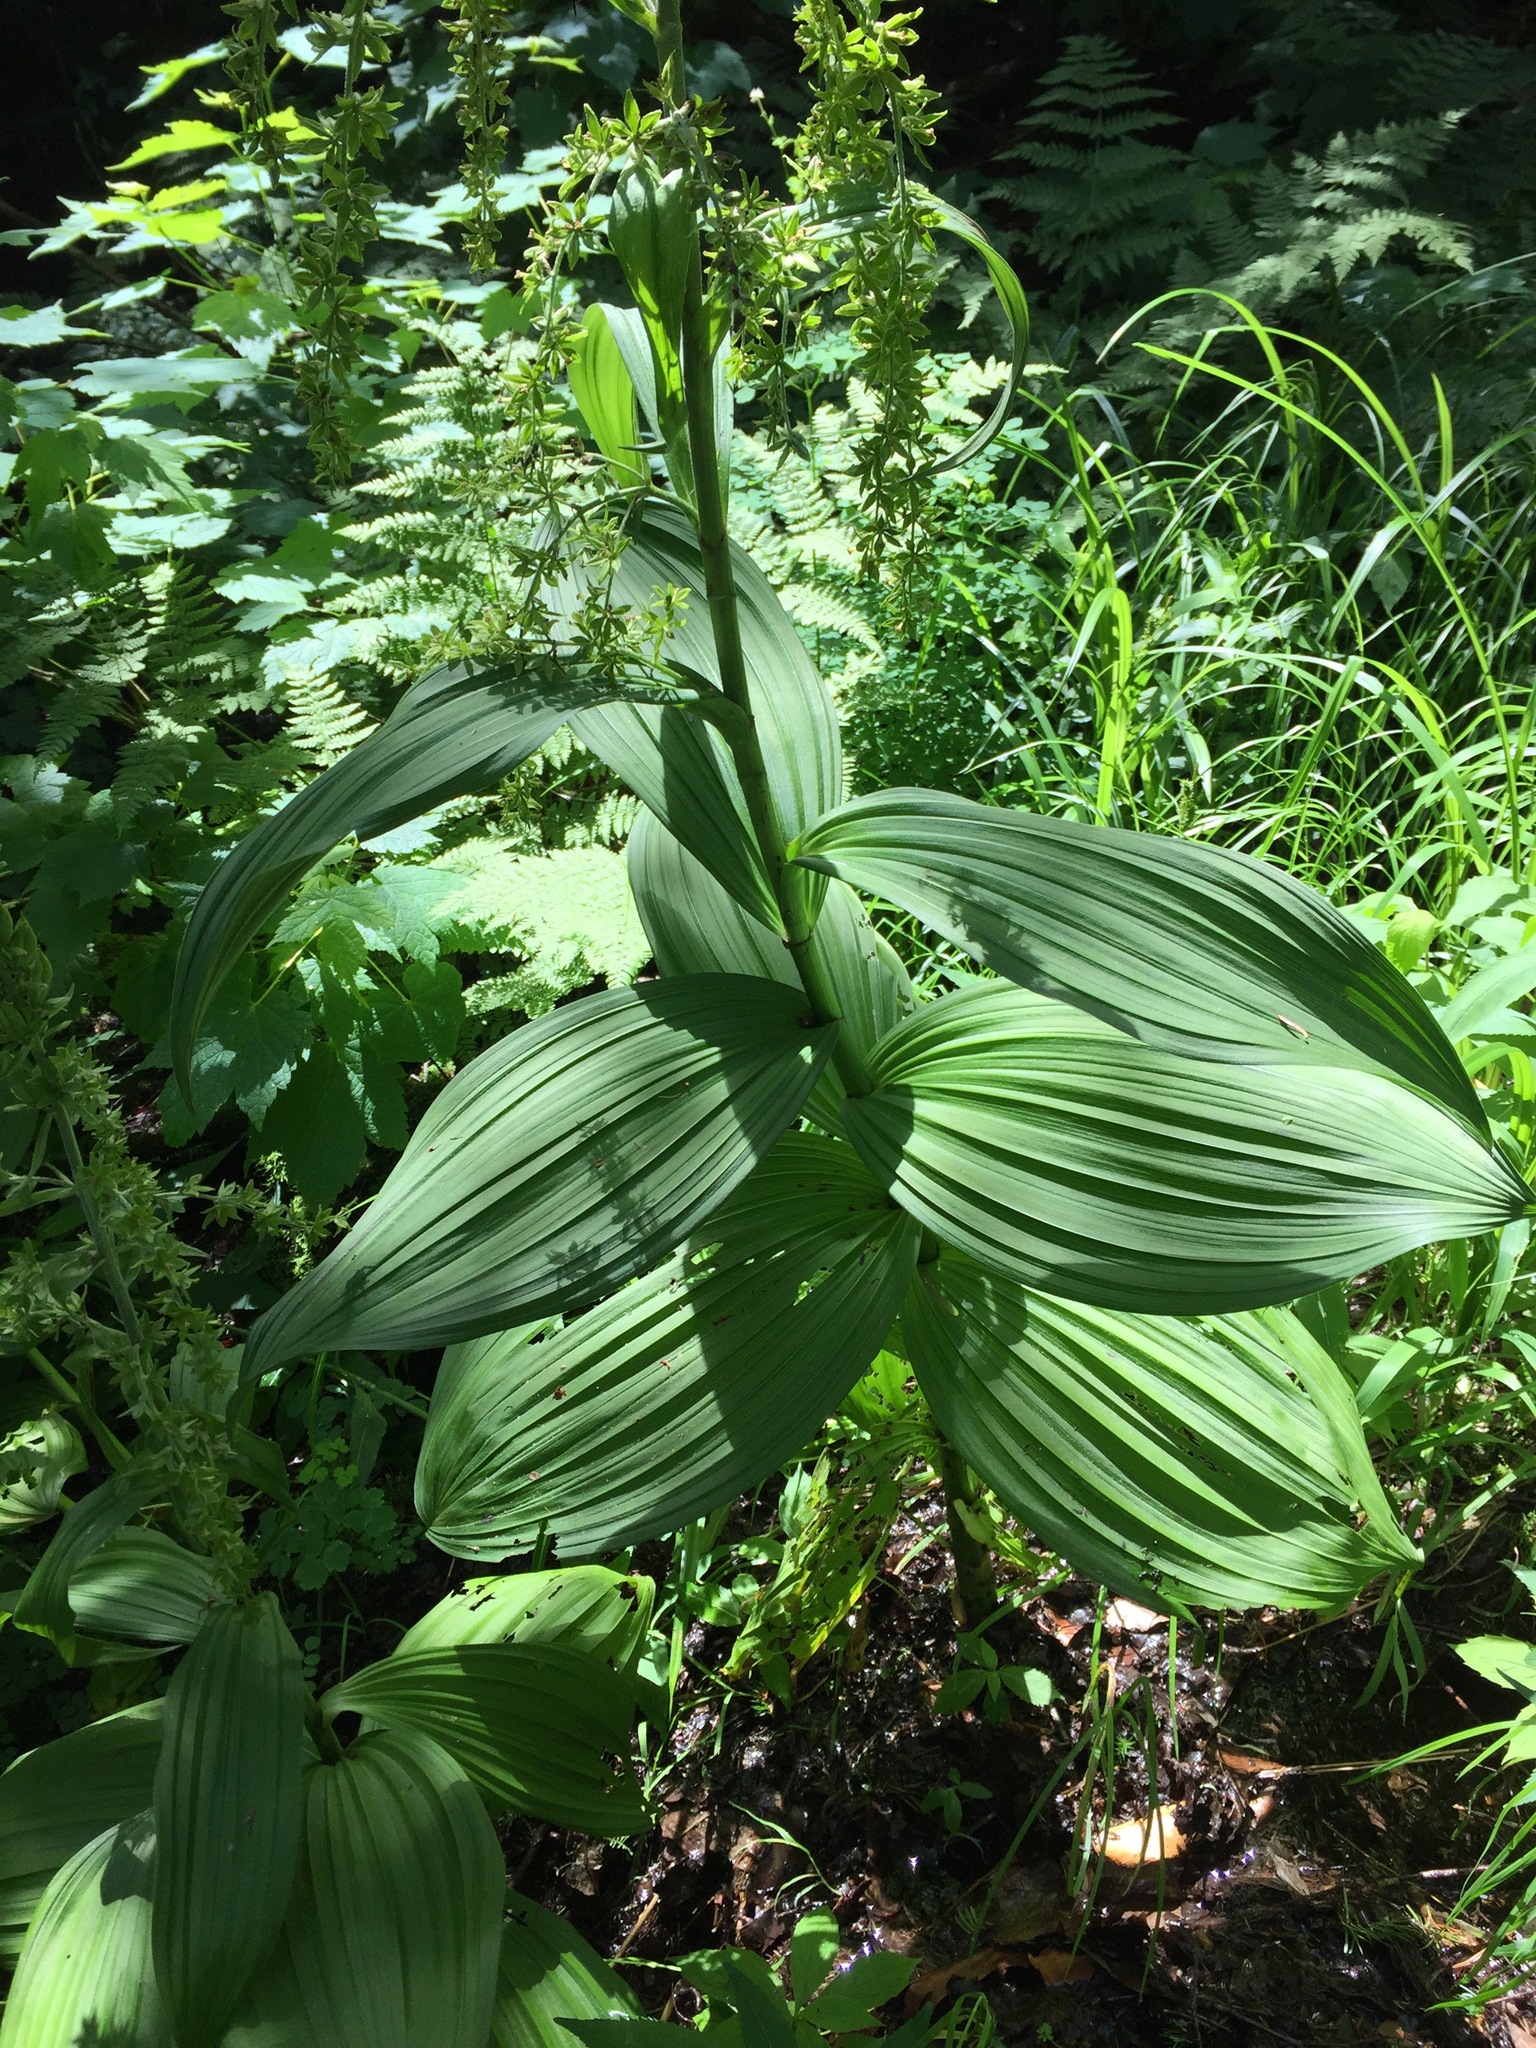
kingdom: Plantae
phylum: Tracheophyta
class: Liliopsida
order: Liliales
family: Melanthiaceae
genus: Veratrum
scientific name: Veratrum viride
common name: American false hellebore
